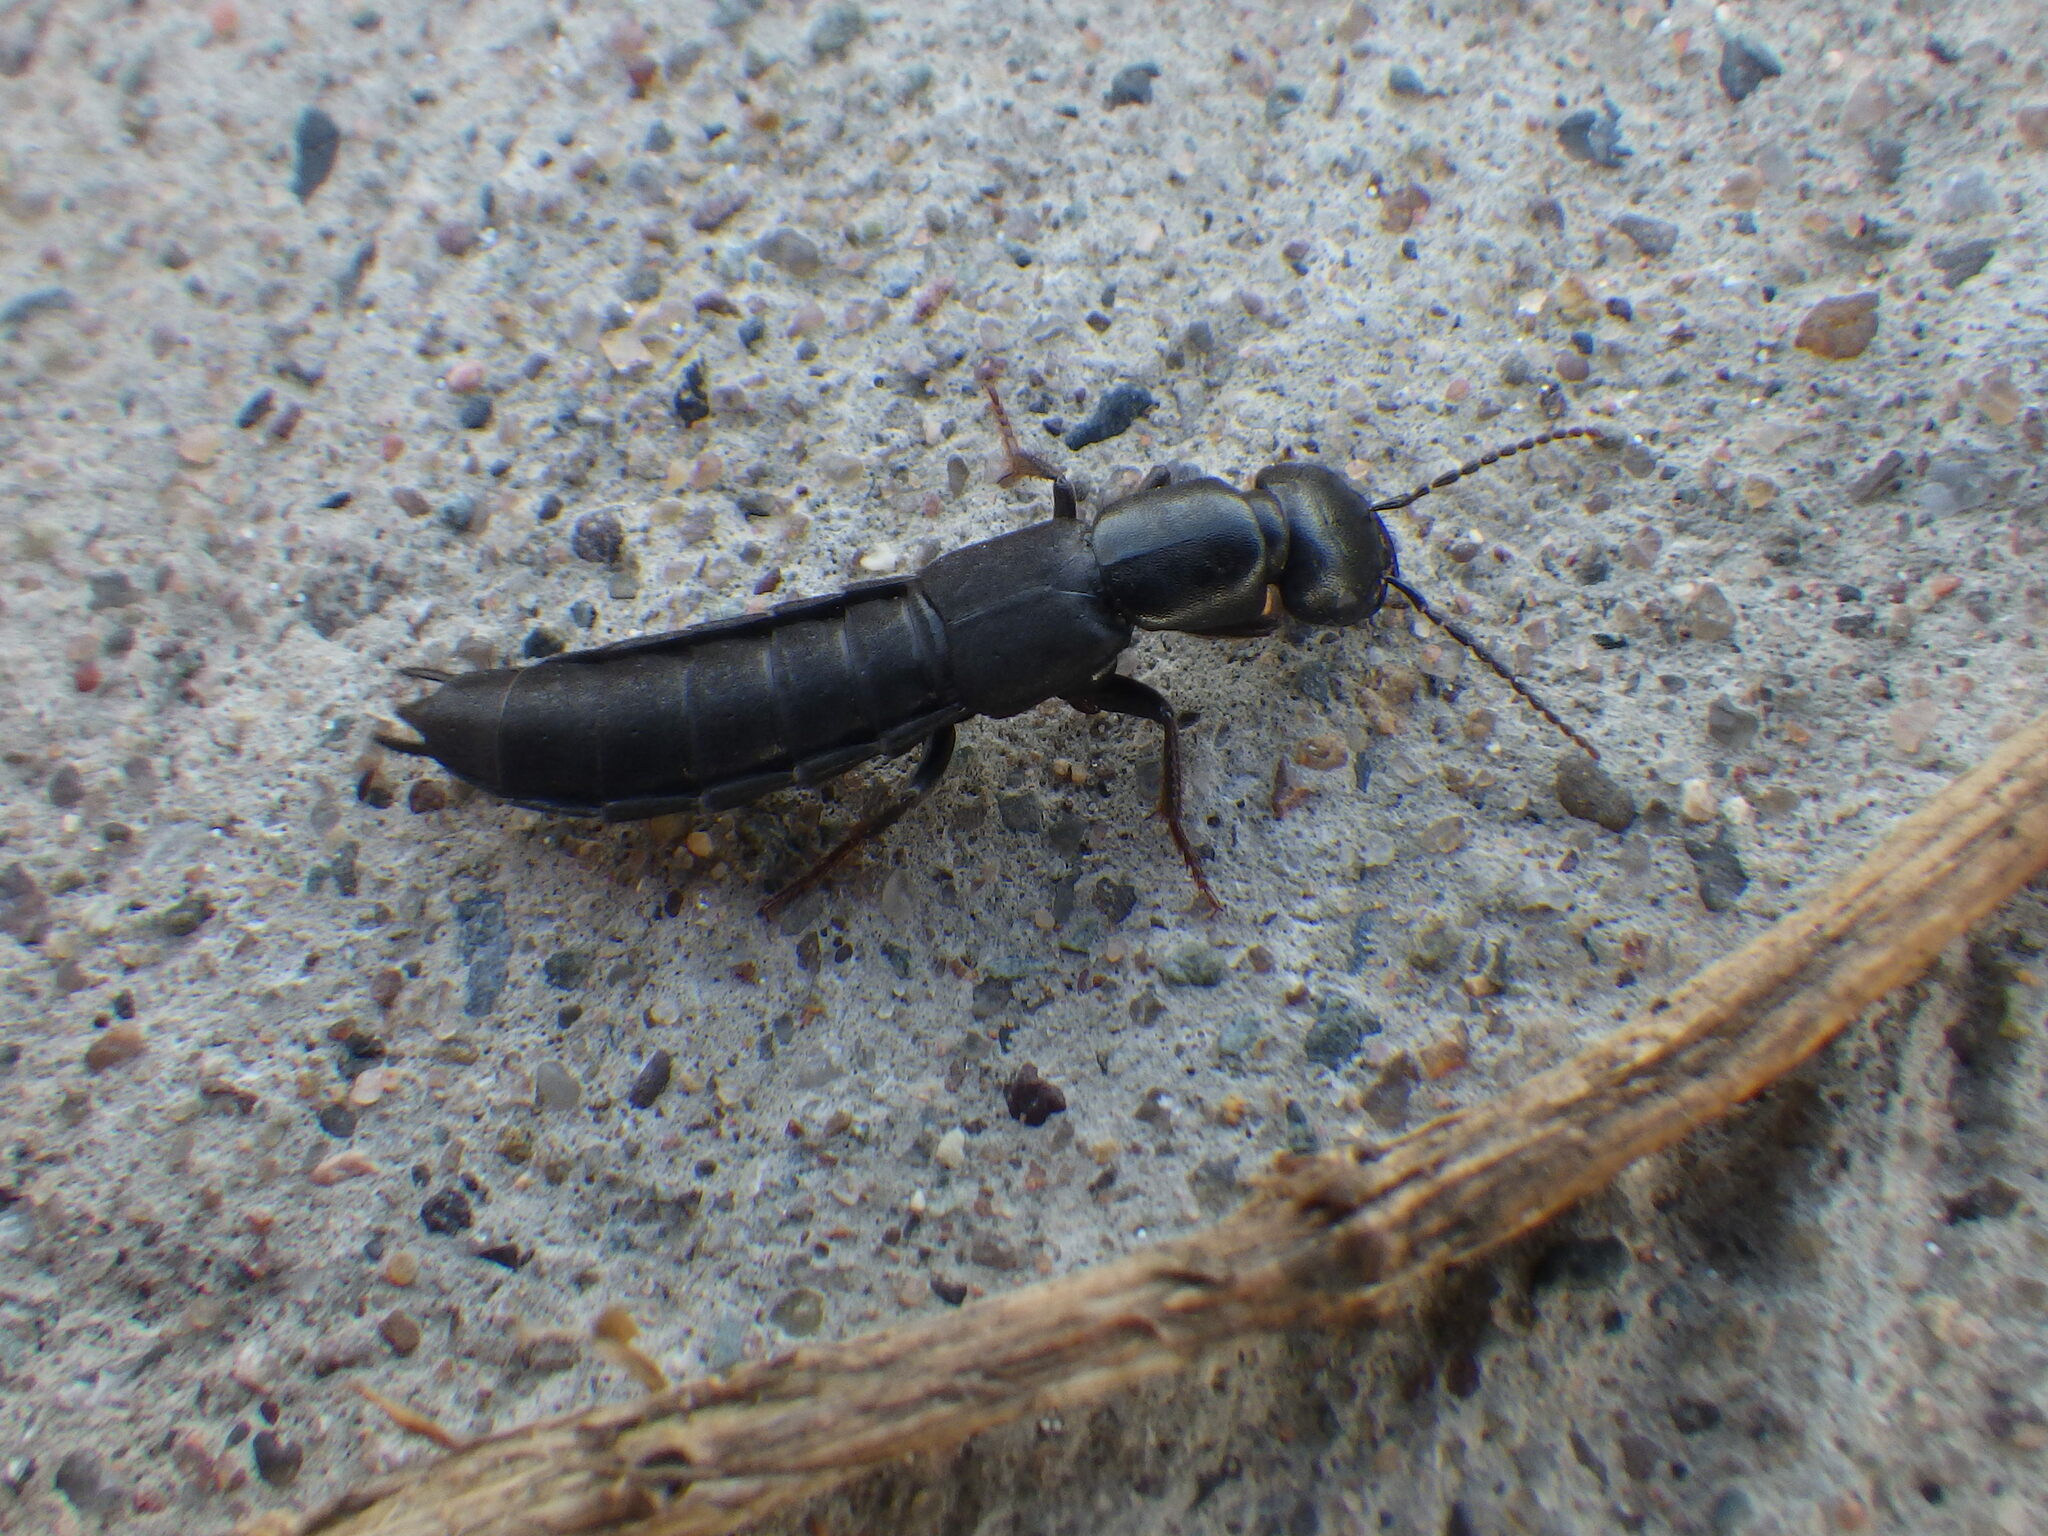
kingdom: Animalia
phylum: Arthropoda
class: Insecta
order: Coleoptera
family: Staphylinidae
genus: Tasgius
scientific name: Tasgius melanarius
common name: Rove beetle
